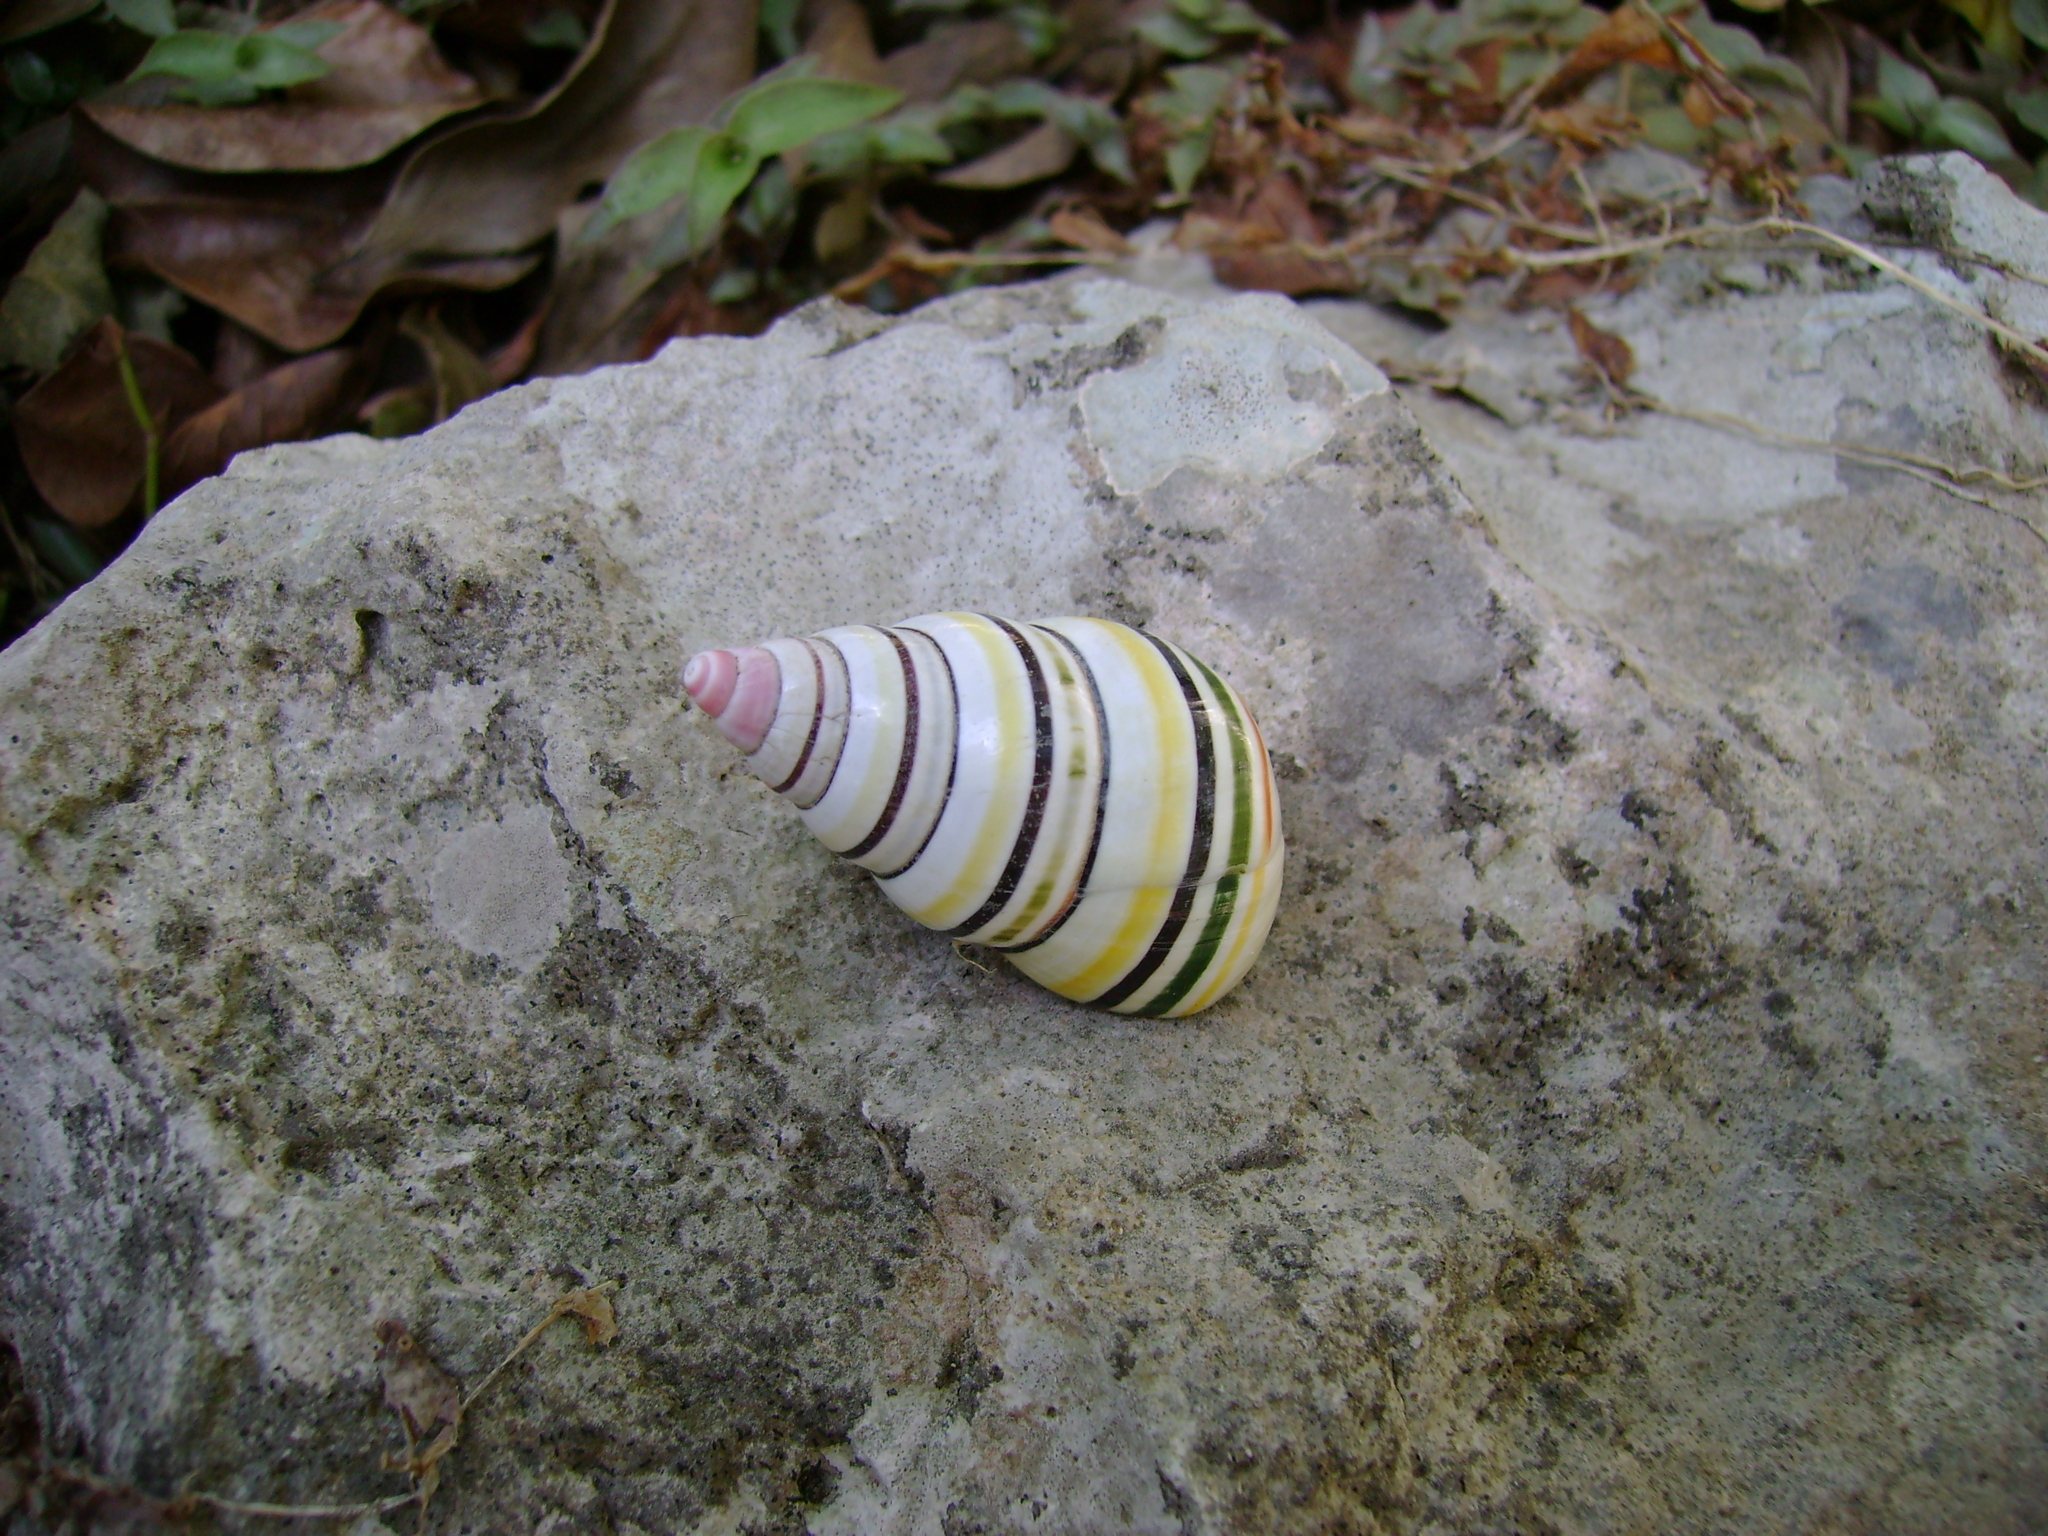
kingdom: Animalia
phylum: Mollusca
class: Gastropoda
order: Stylommatophora
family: Orthalicidae
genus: Liguus
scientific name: Liguus virgineus
